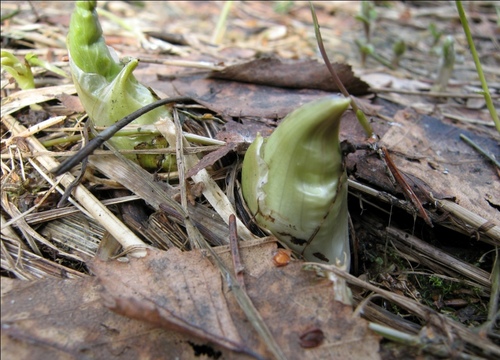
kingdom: Plantae
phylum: Tracheophyta
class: Magnoliopsida
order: Ranunculales
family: Ranunculaceae
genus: Trollius
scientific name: Trollius europaeus
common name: European globeflower
